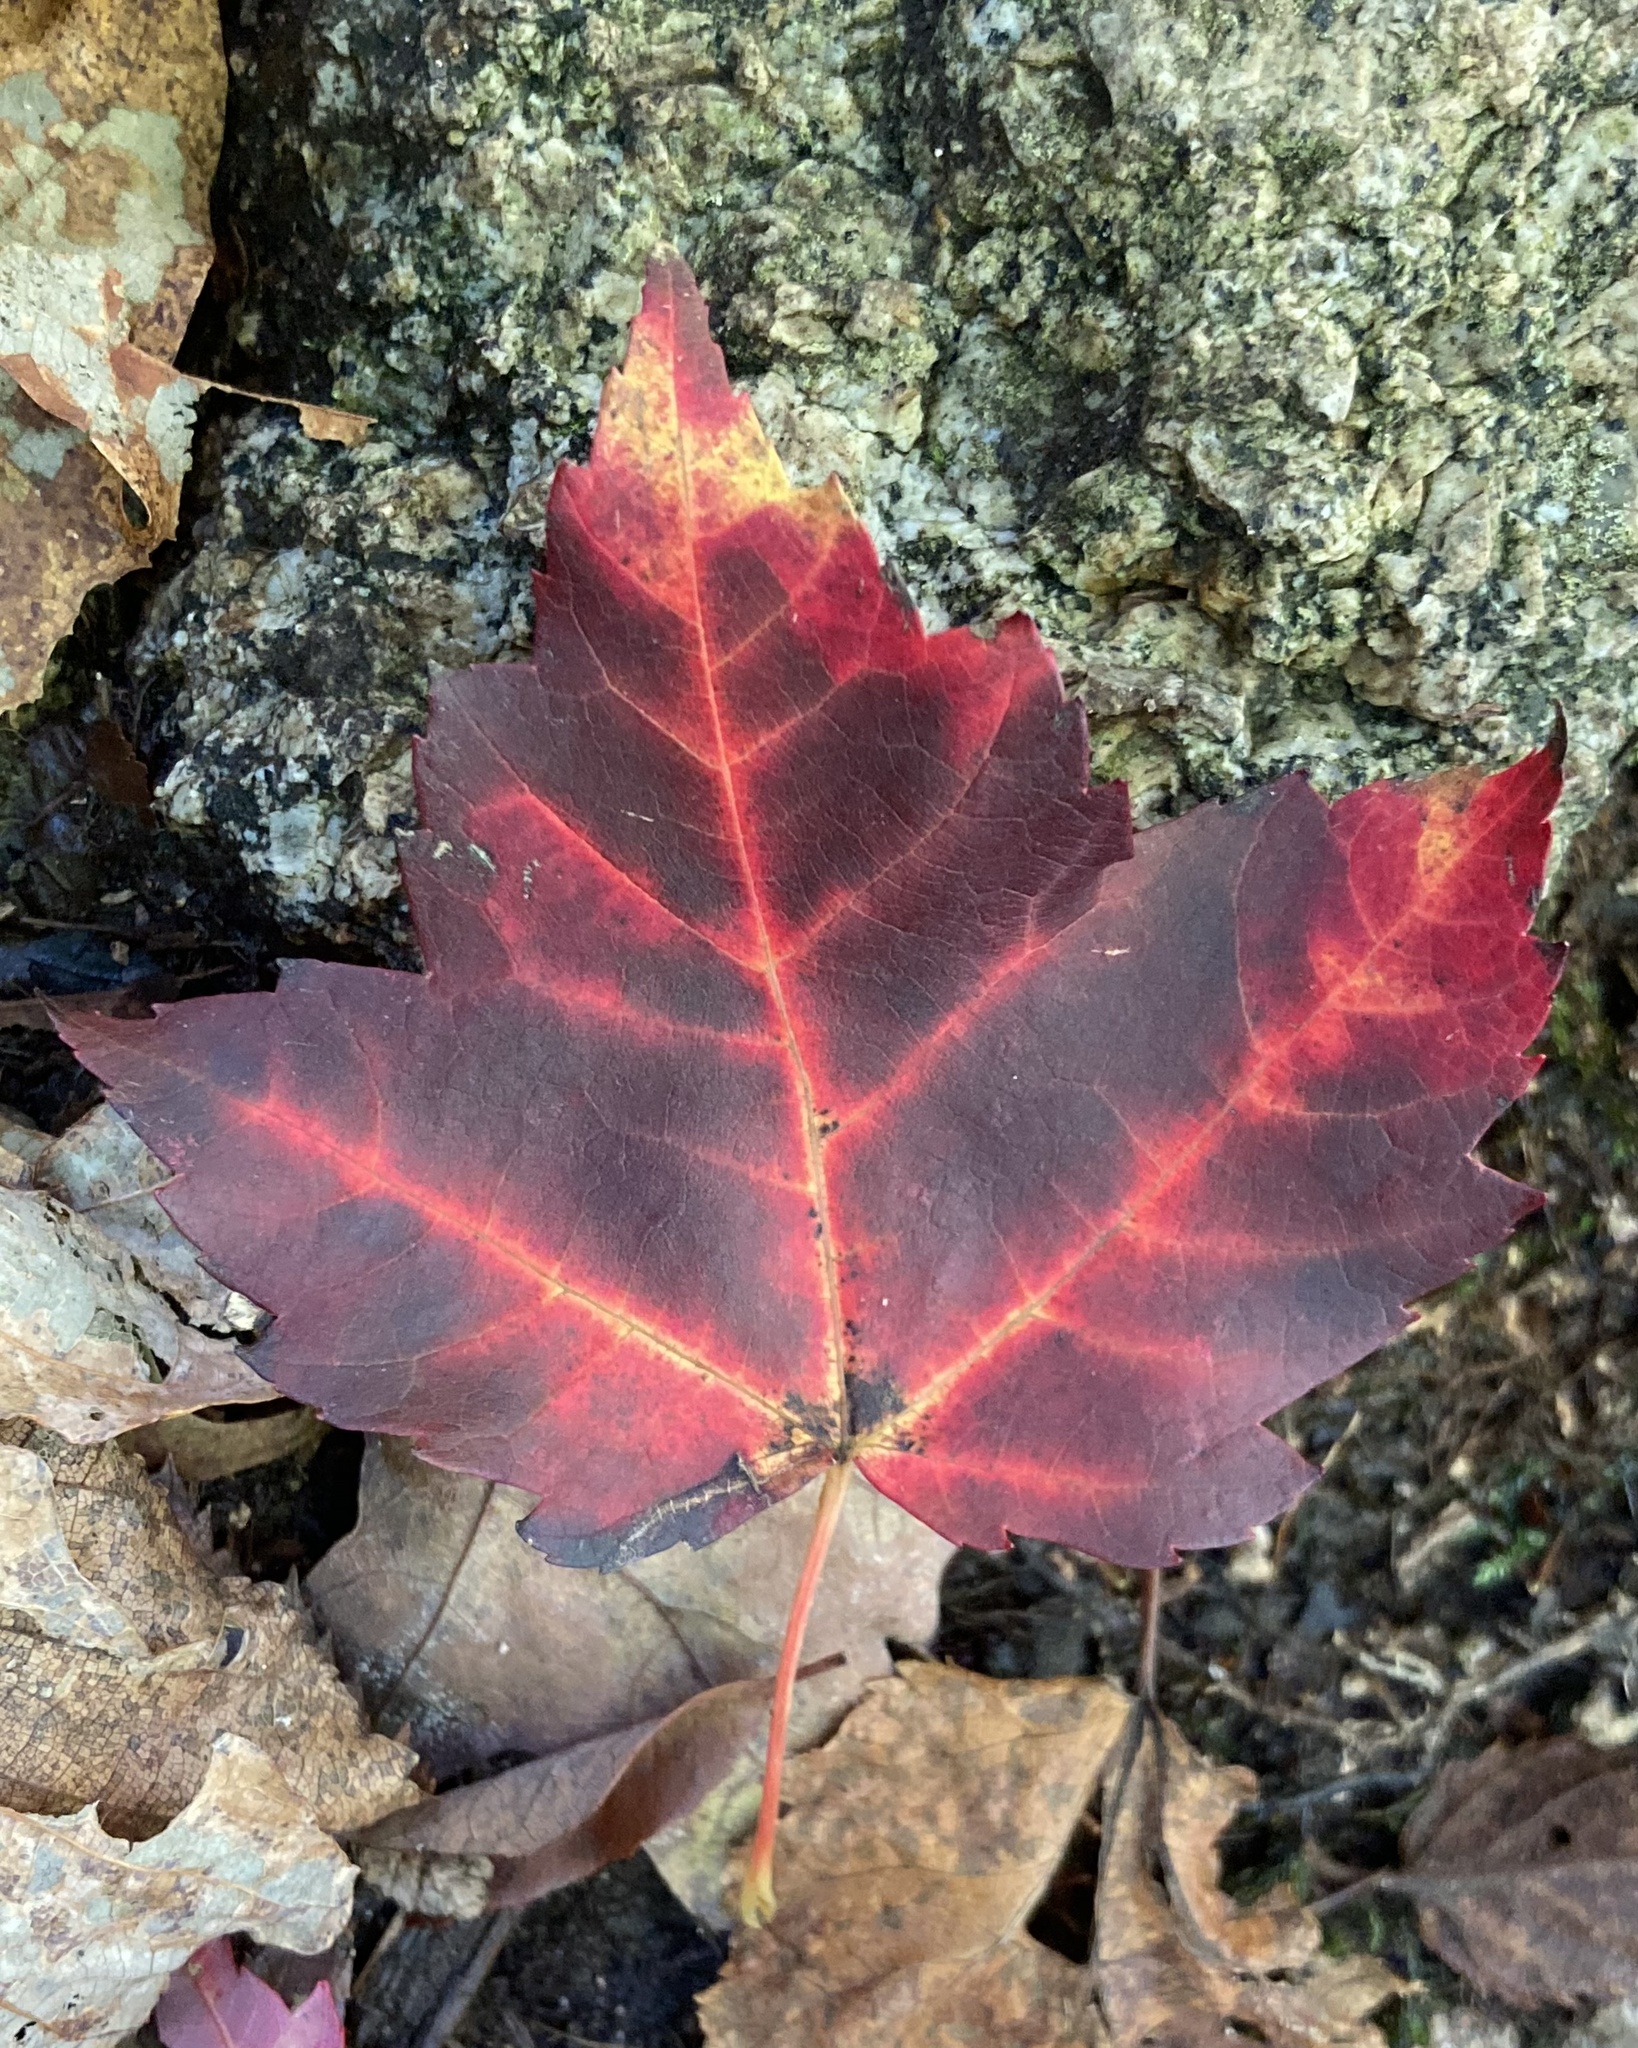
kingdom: Plantae
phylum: Tracheophyta
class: Magnoliopsida
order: Sapindales
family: Sapindaceae
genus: Acer
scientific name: Acer rubrum
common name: Red maple
